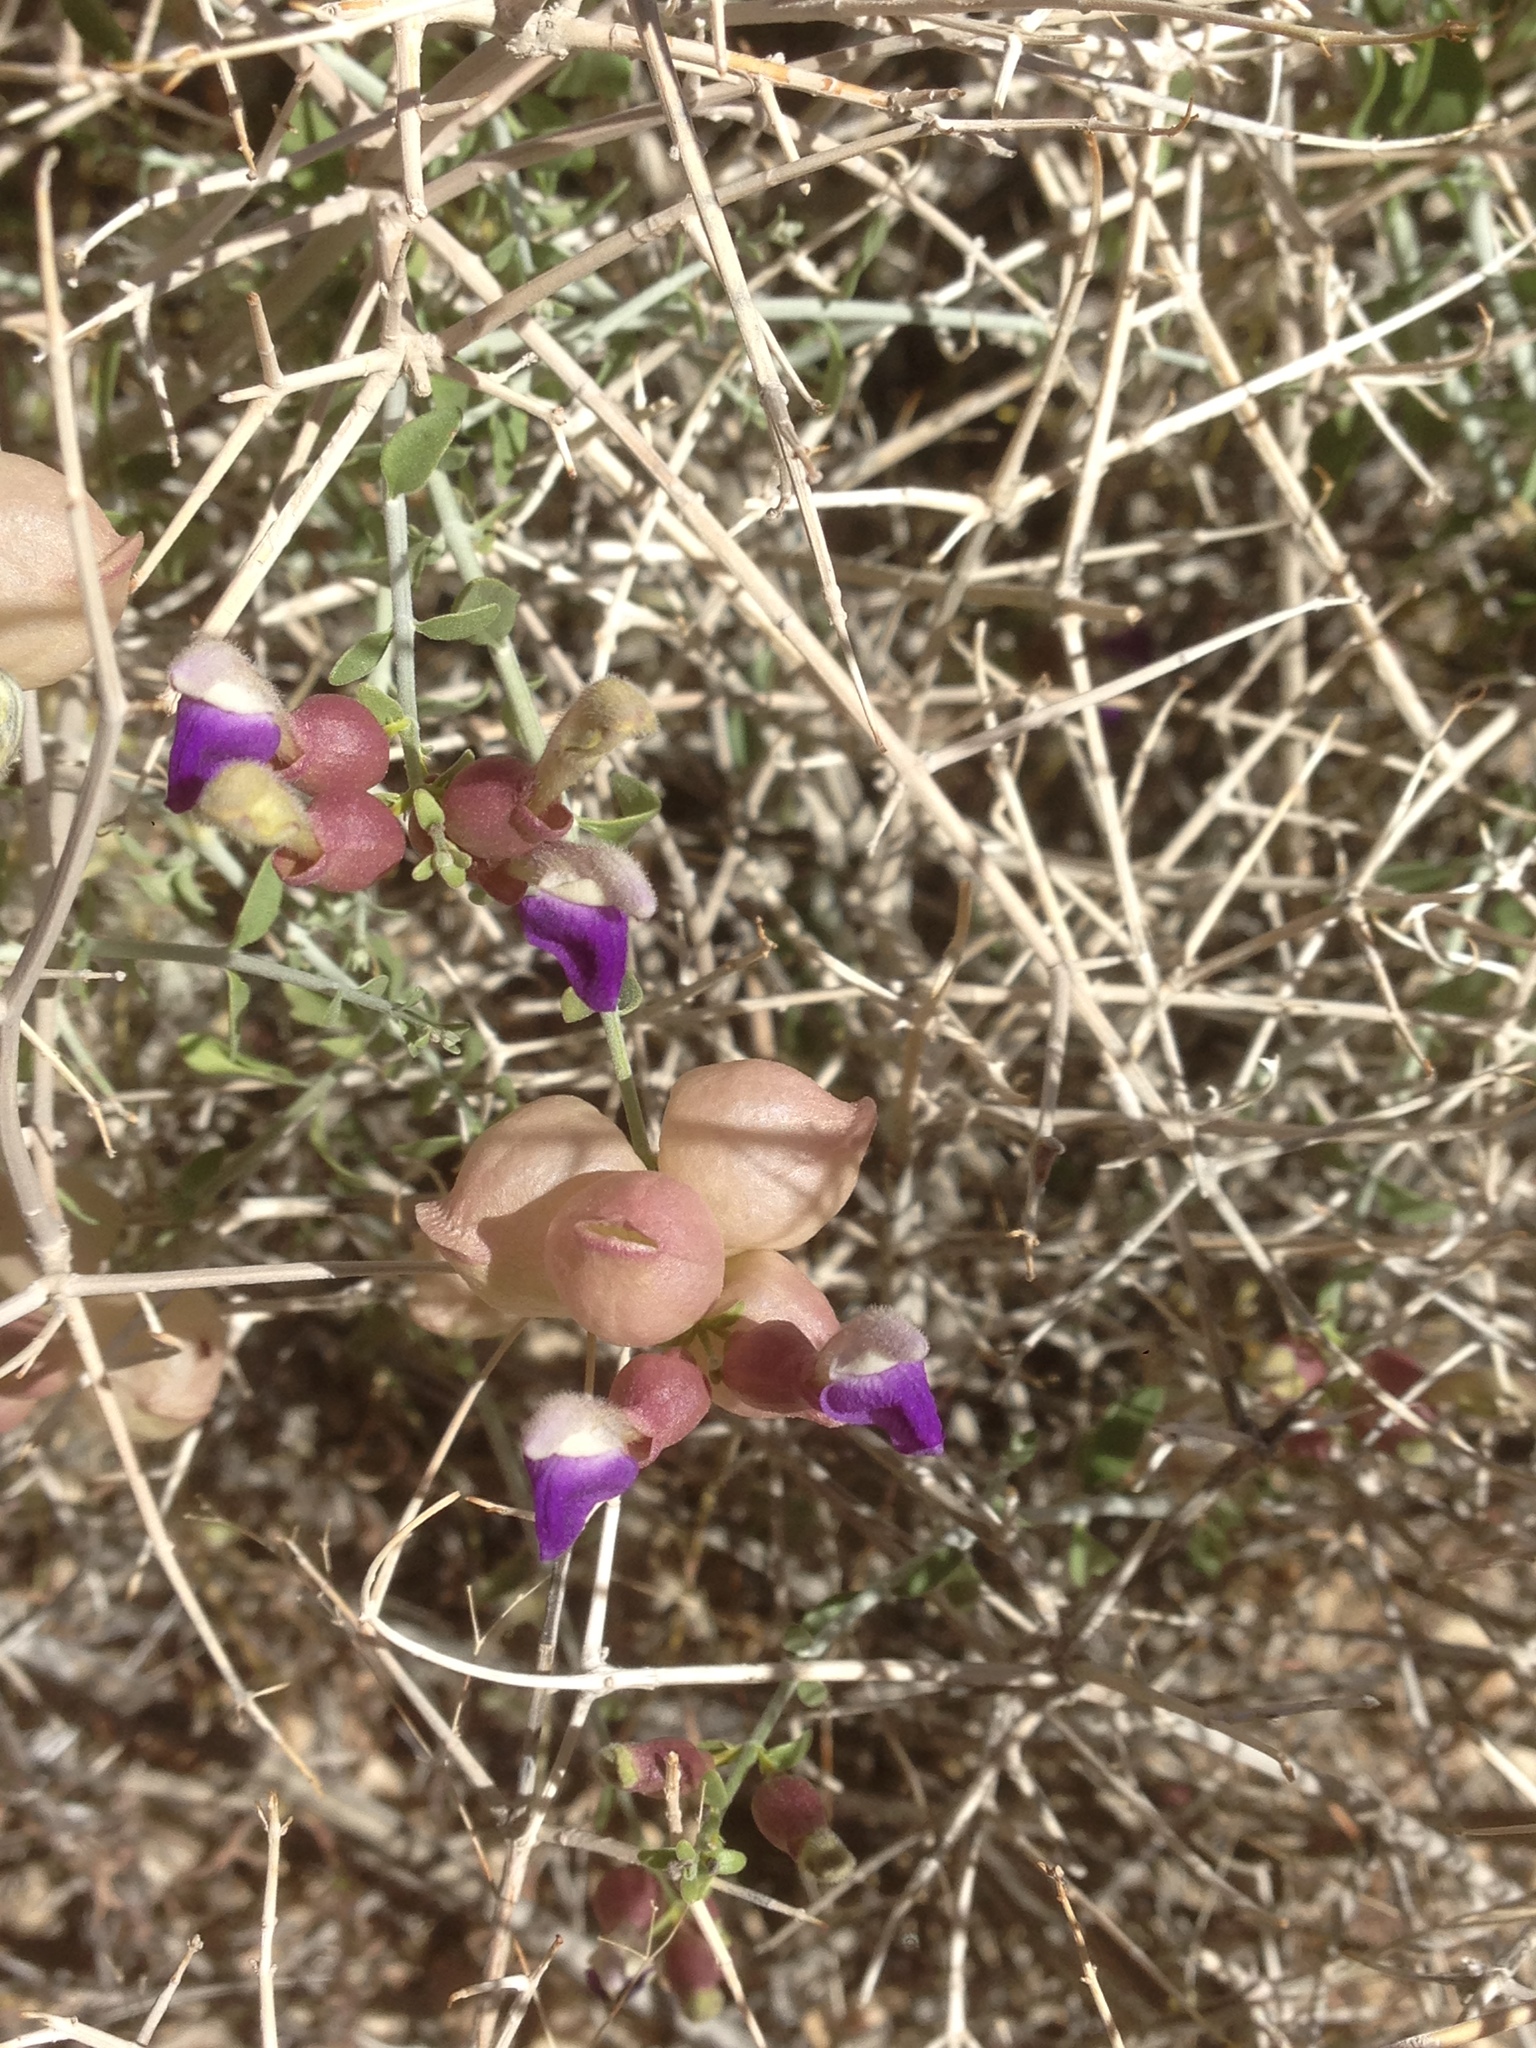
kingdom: Plantae
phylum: Tracheophyta
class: Magnoliopsida
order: Lamiales
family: Lamiaceae
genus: Scutellaria
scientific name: Scutellaria mexicana
